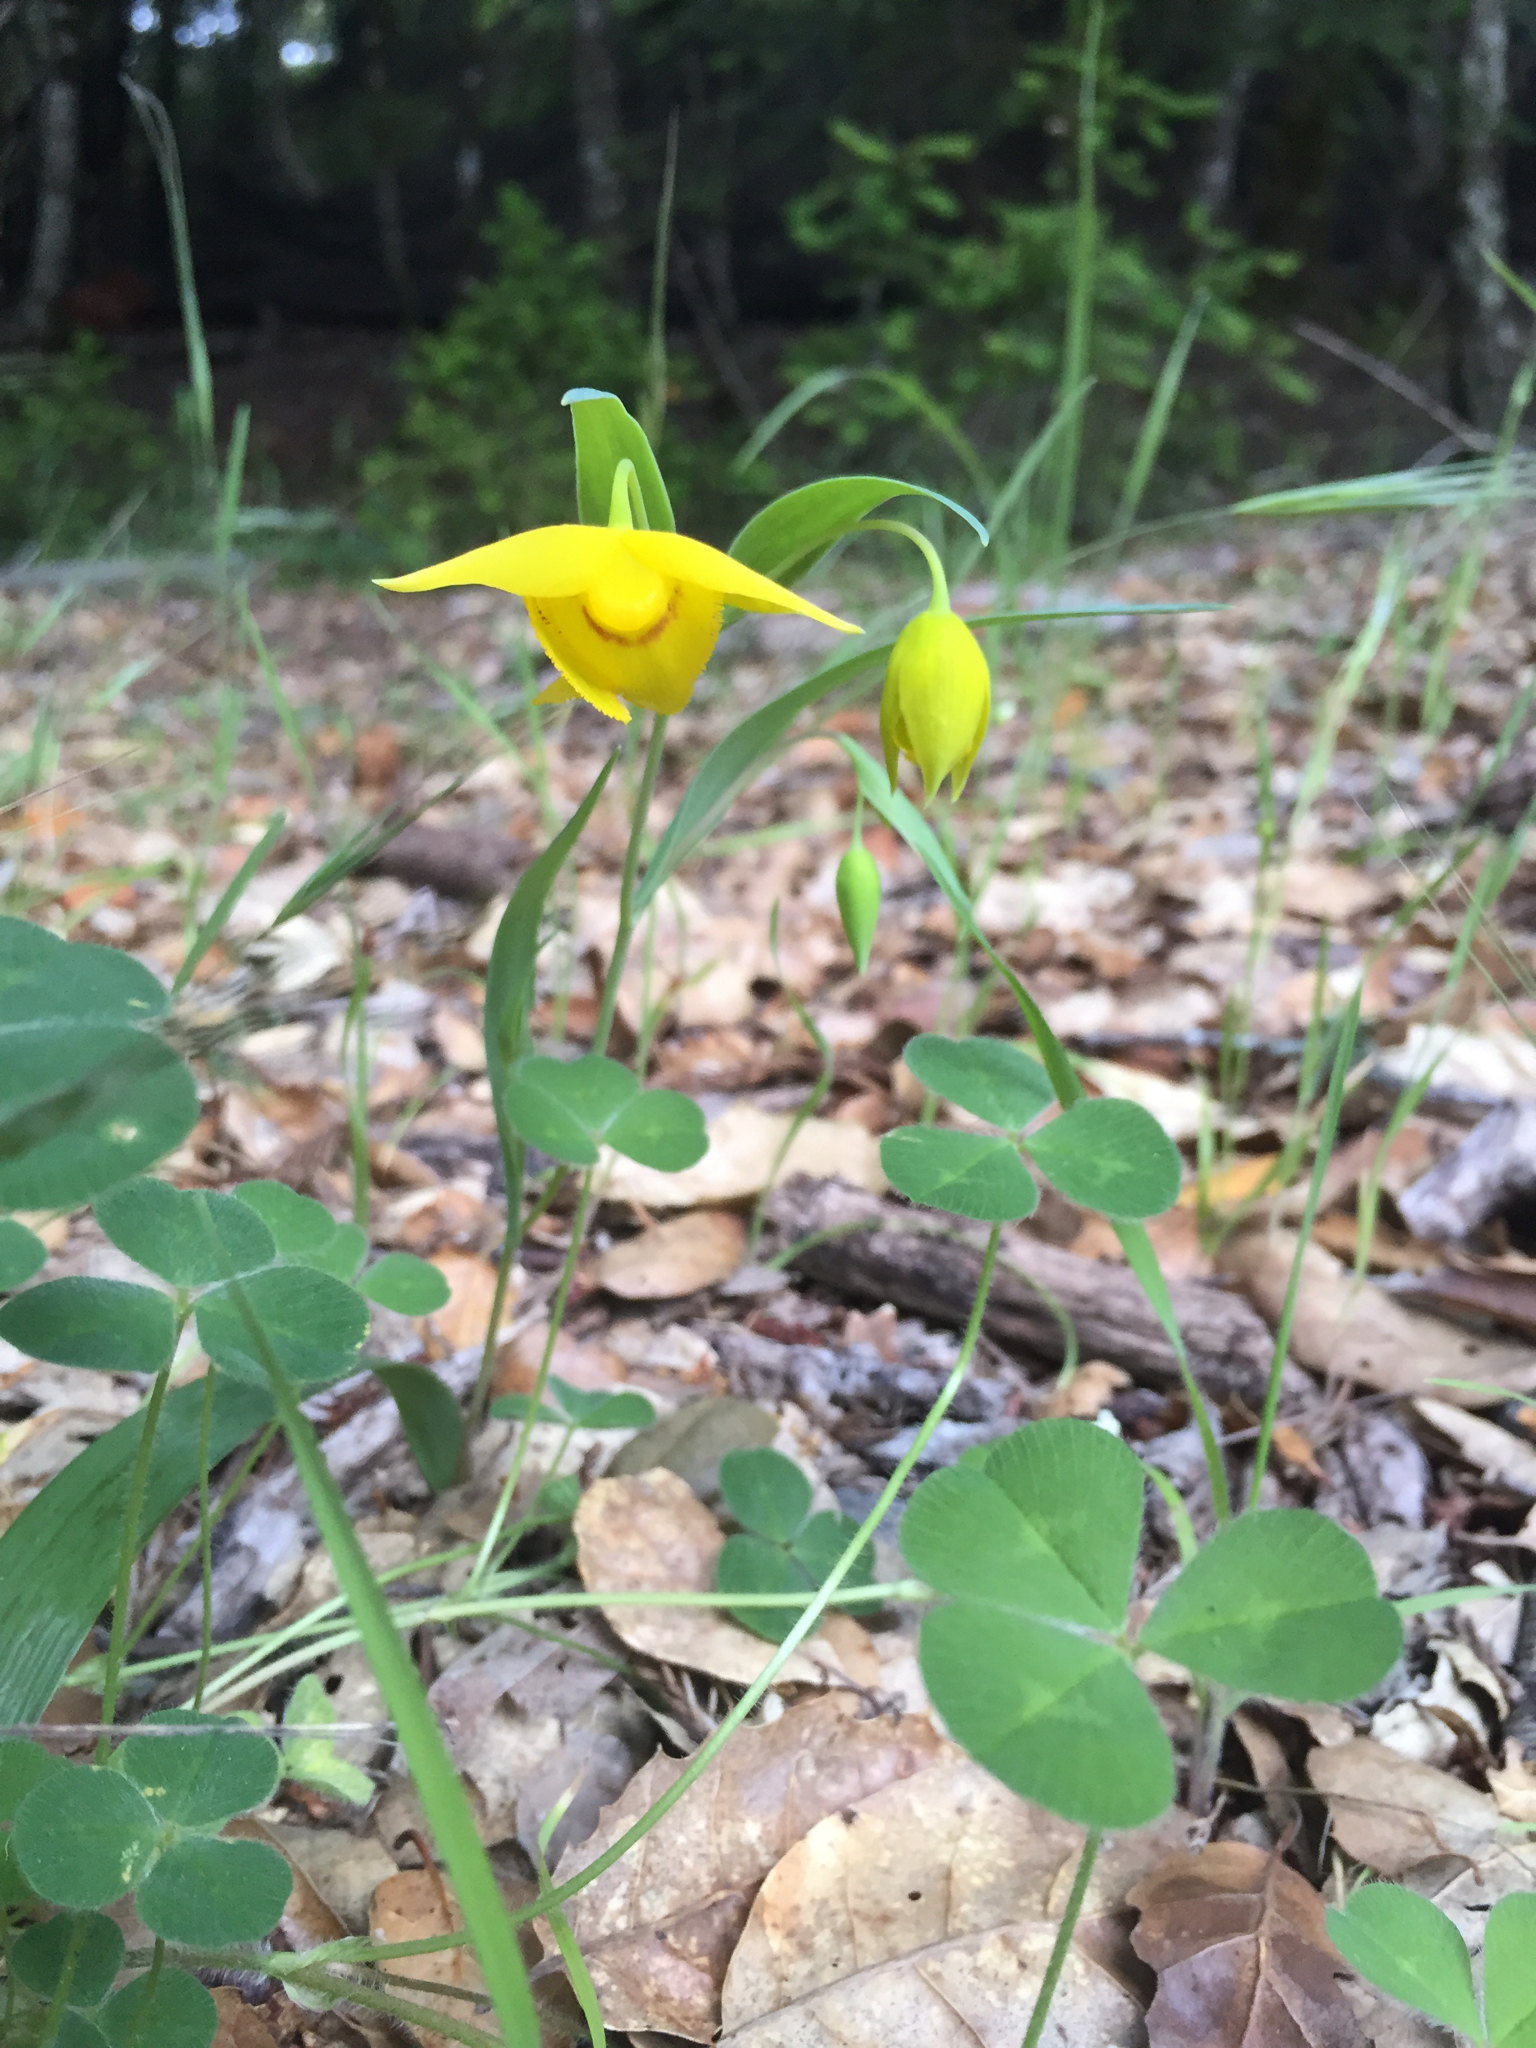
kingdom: Plantae
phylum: Tracheophyta
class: Liliopsida
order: Liliales
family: Liliaceae
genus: Calochortus
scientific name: Calochortus amabilis
